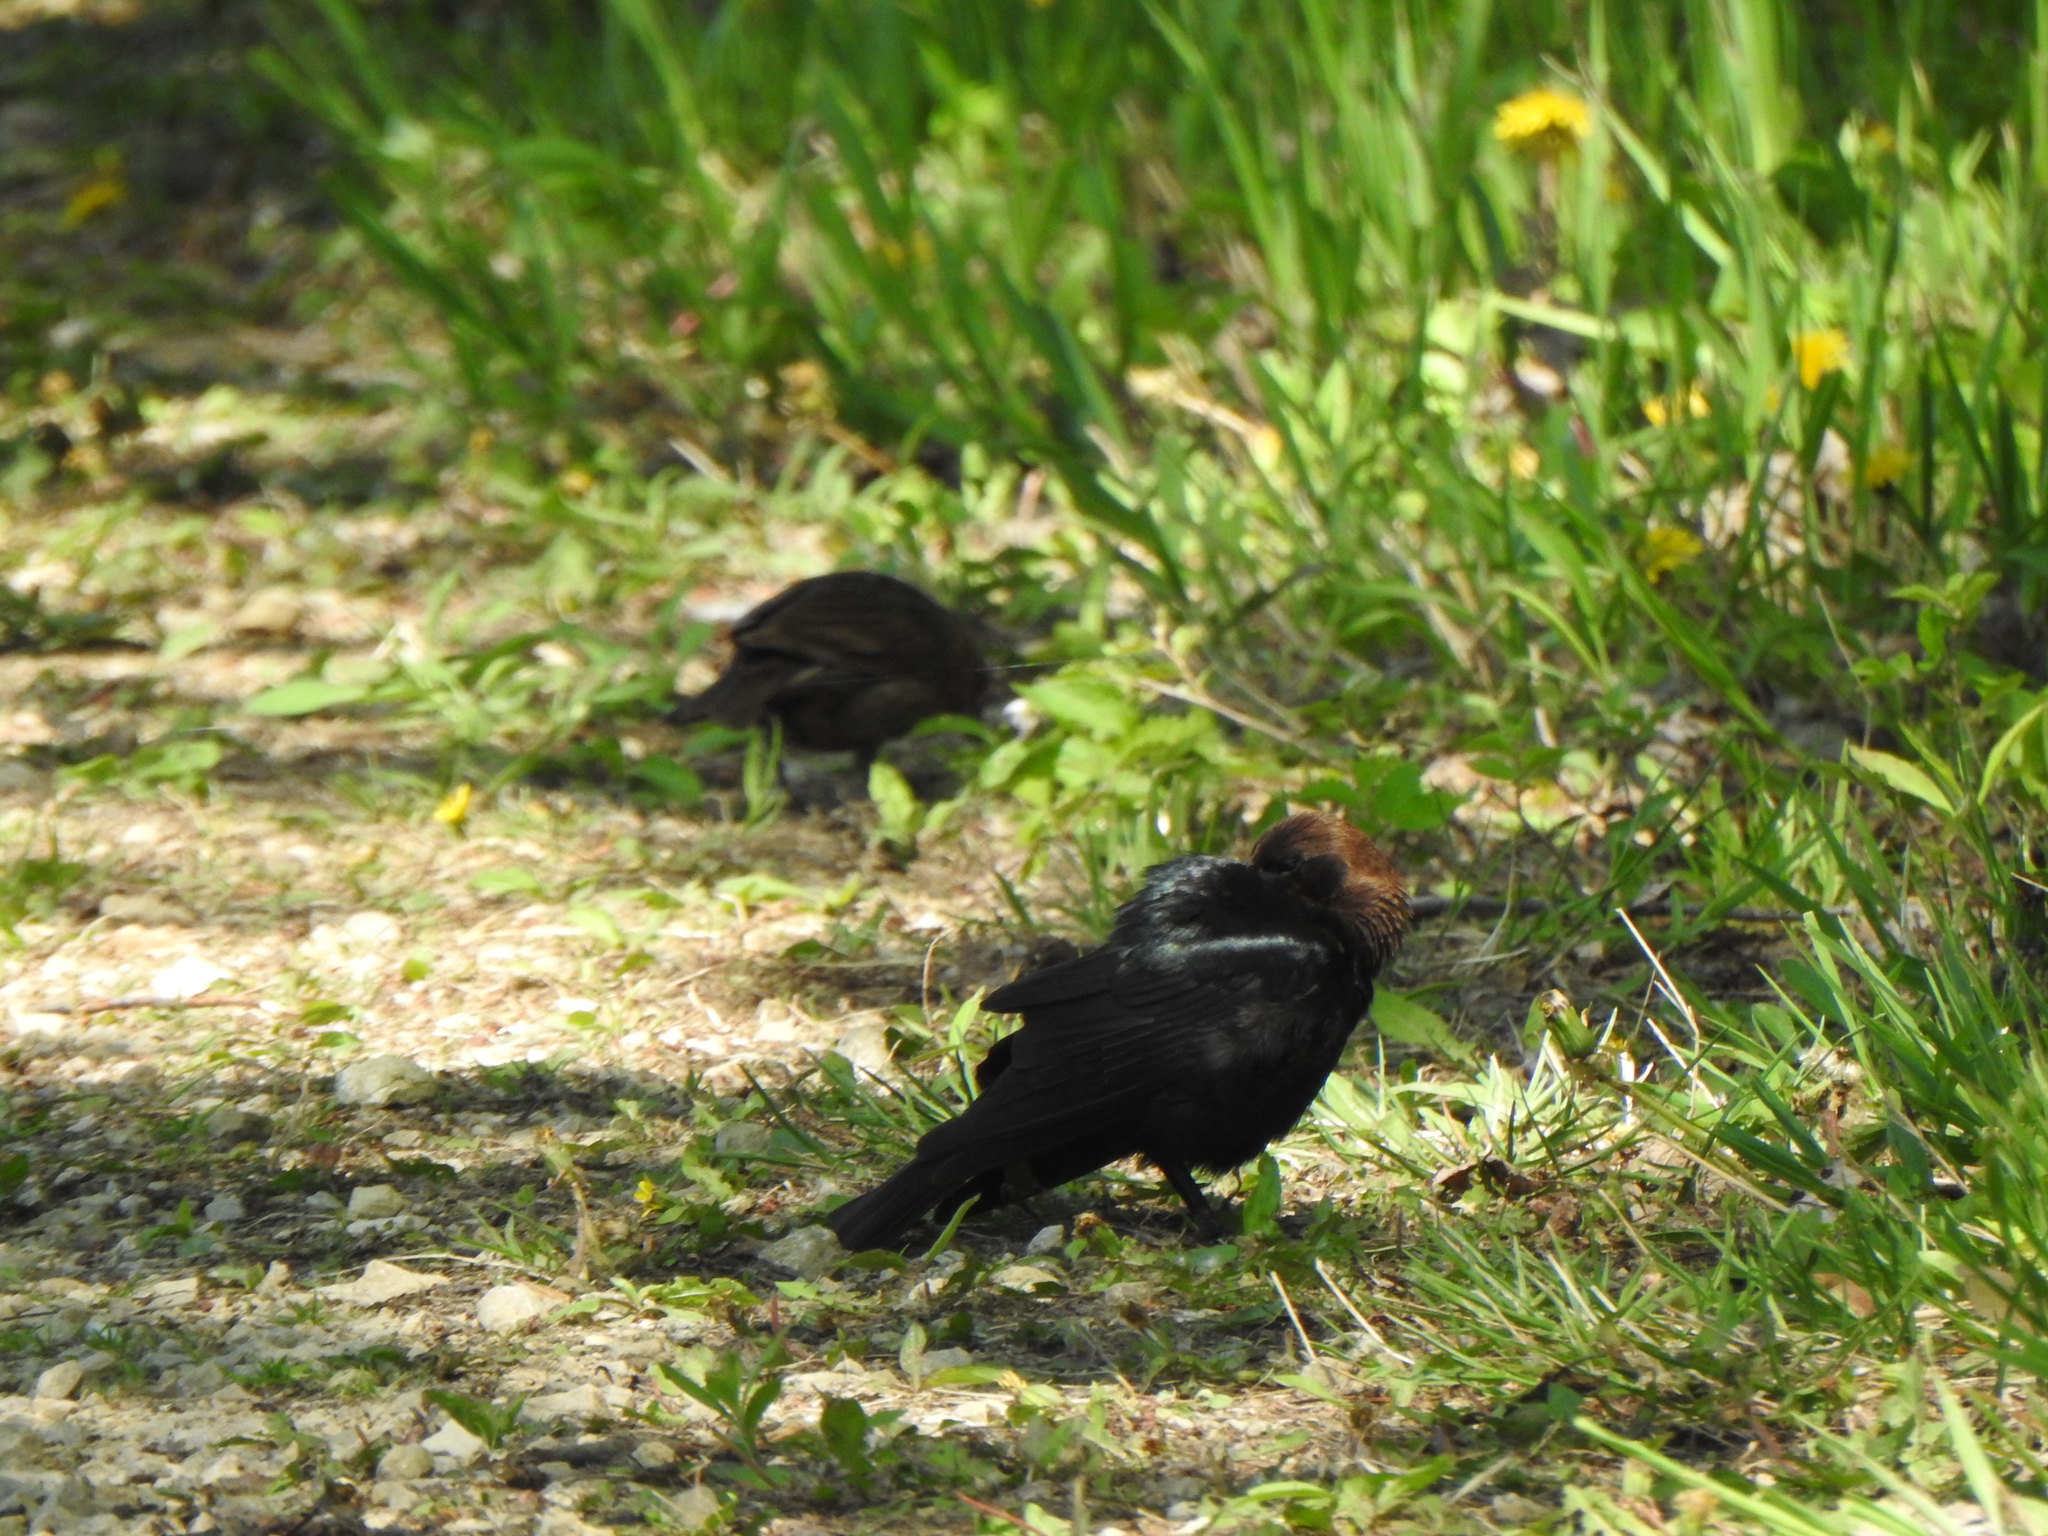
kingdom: Animalia
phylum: Chordata
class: Aves
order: Passeriformes
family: Icteridae
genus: Molothrus
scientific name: Molothrus ater
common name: Brown-headed cowbird
